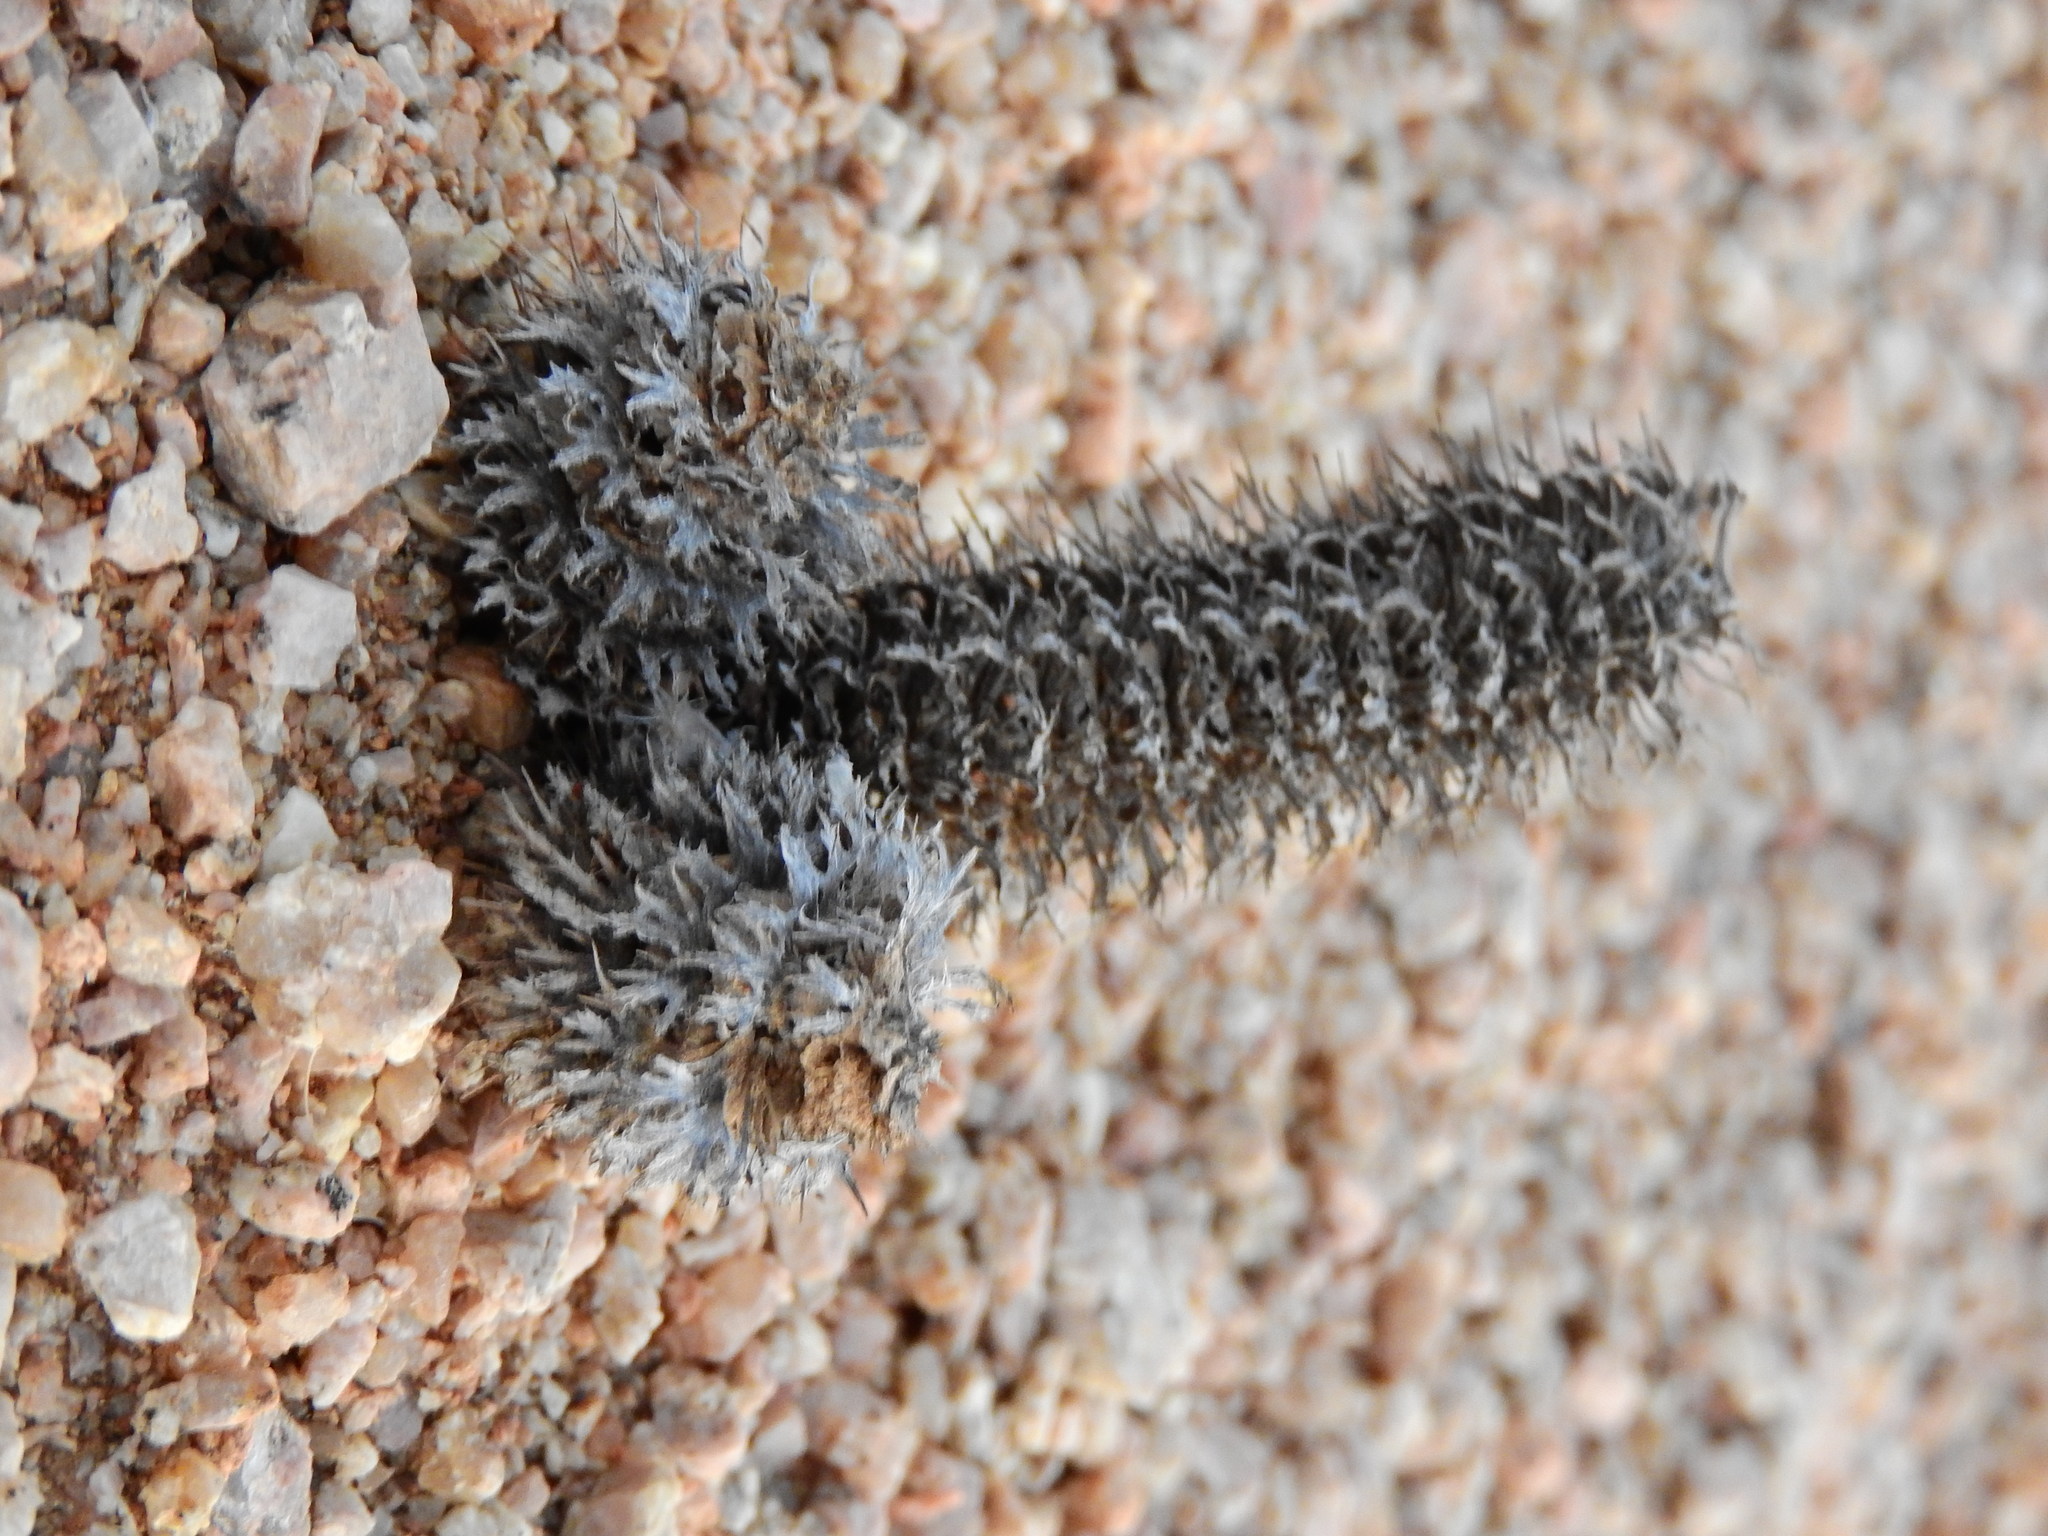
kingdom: Plantae
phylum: Tracheophyta
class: Magnoliopsida
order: Lamiales
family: Acanthaceae
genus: Acanthopsis
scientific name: Acanthopsis disperma
